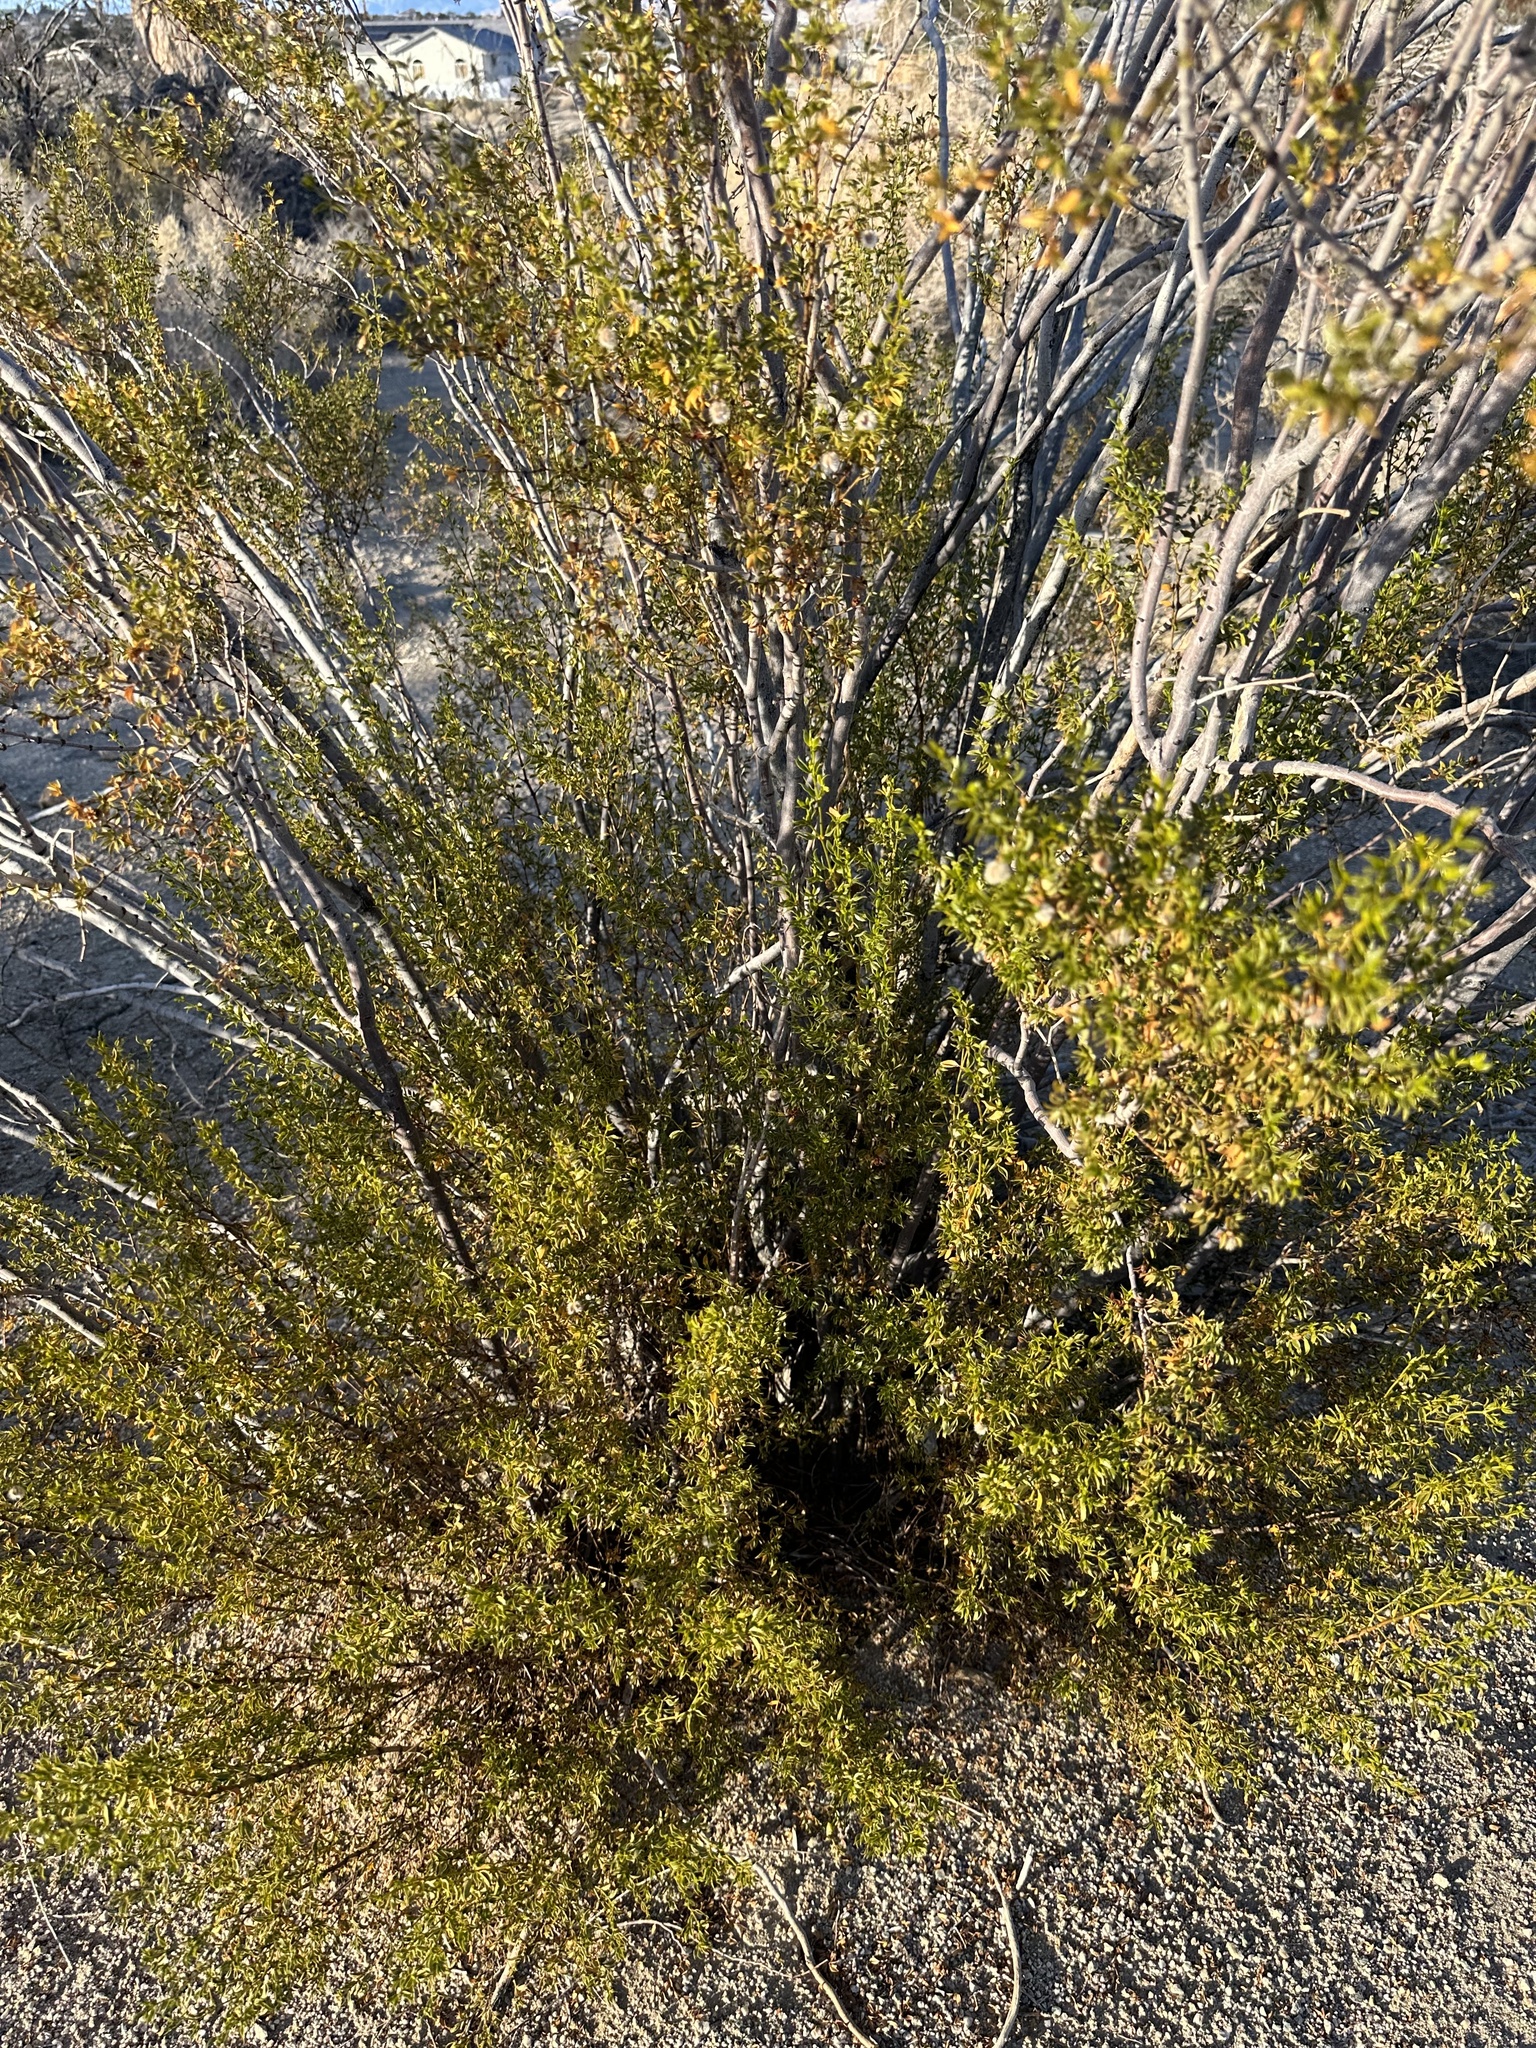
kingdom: Plantae
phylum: Tracheophyta
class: Magnoliopsida
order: Zygophyllales
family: Zygophyllaceae
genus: Larrea
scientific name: Larrea tridentata
